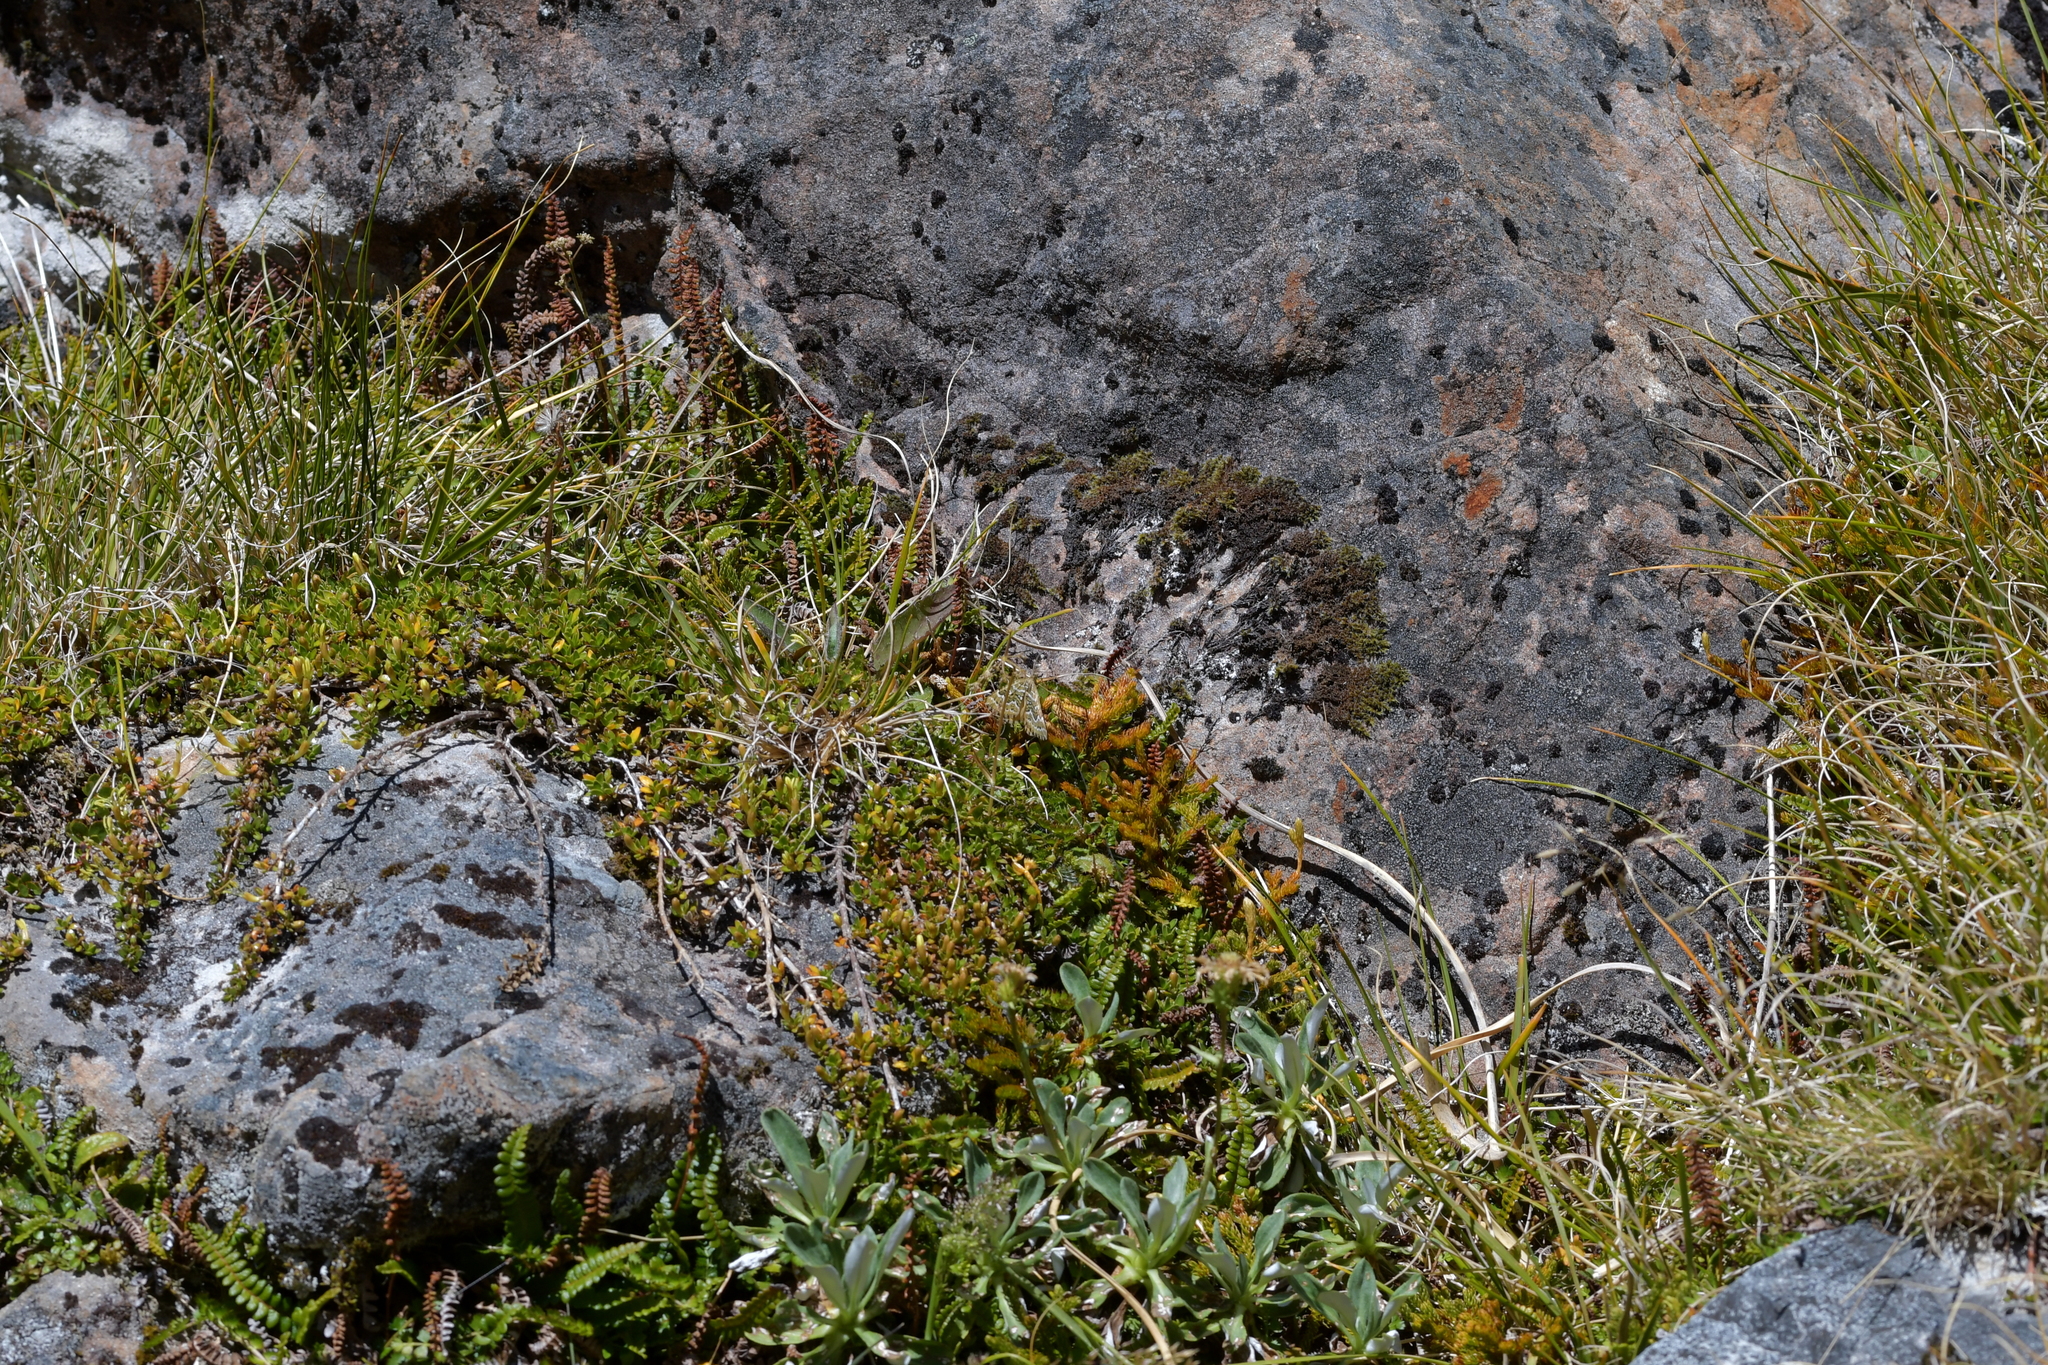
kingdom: Animalia
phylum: Arthropoda
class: Insecta
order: Lepidoptera
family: Geometridae
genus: Asaphodes
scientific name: Asaphodes clarata
